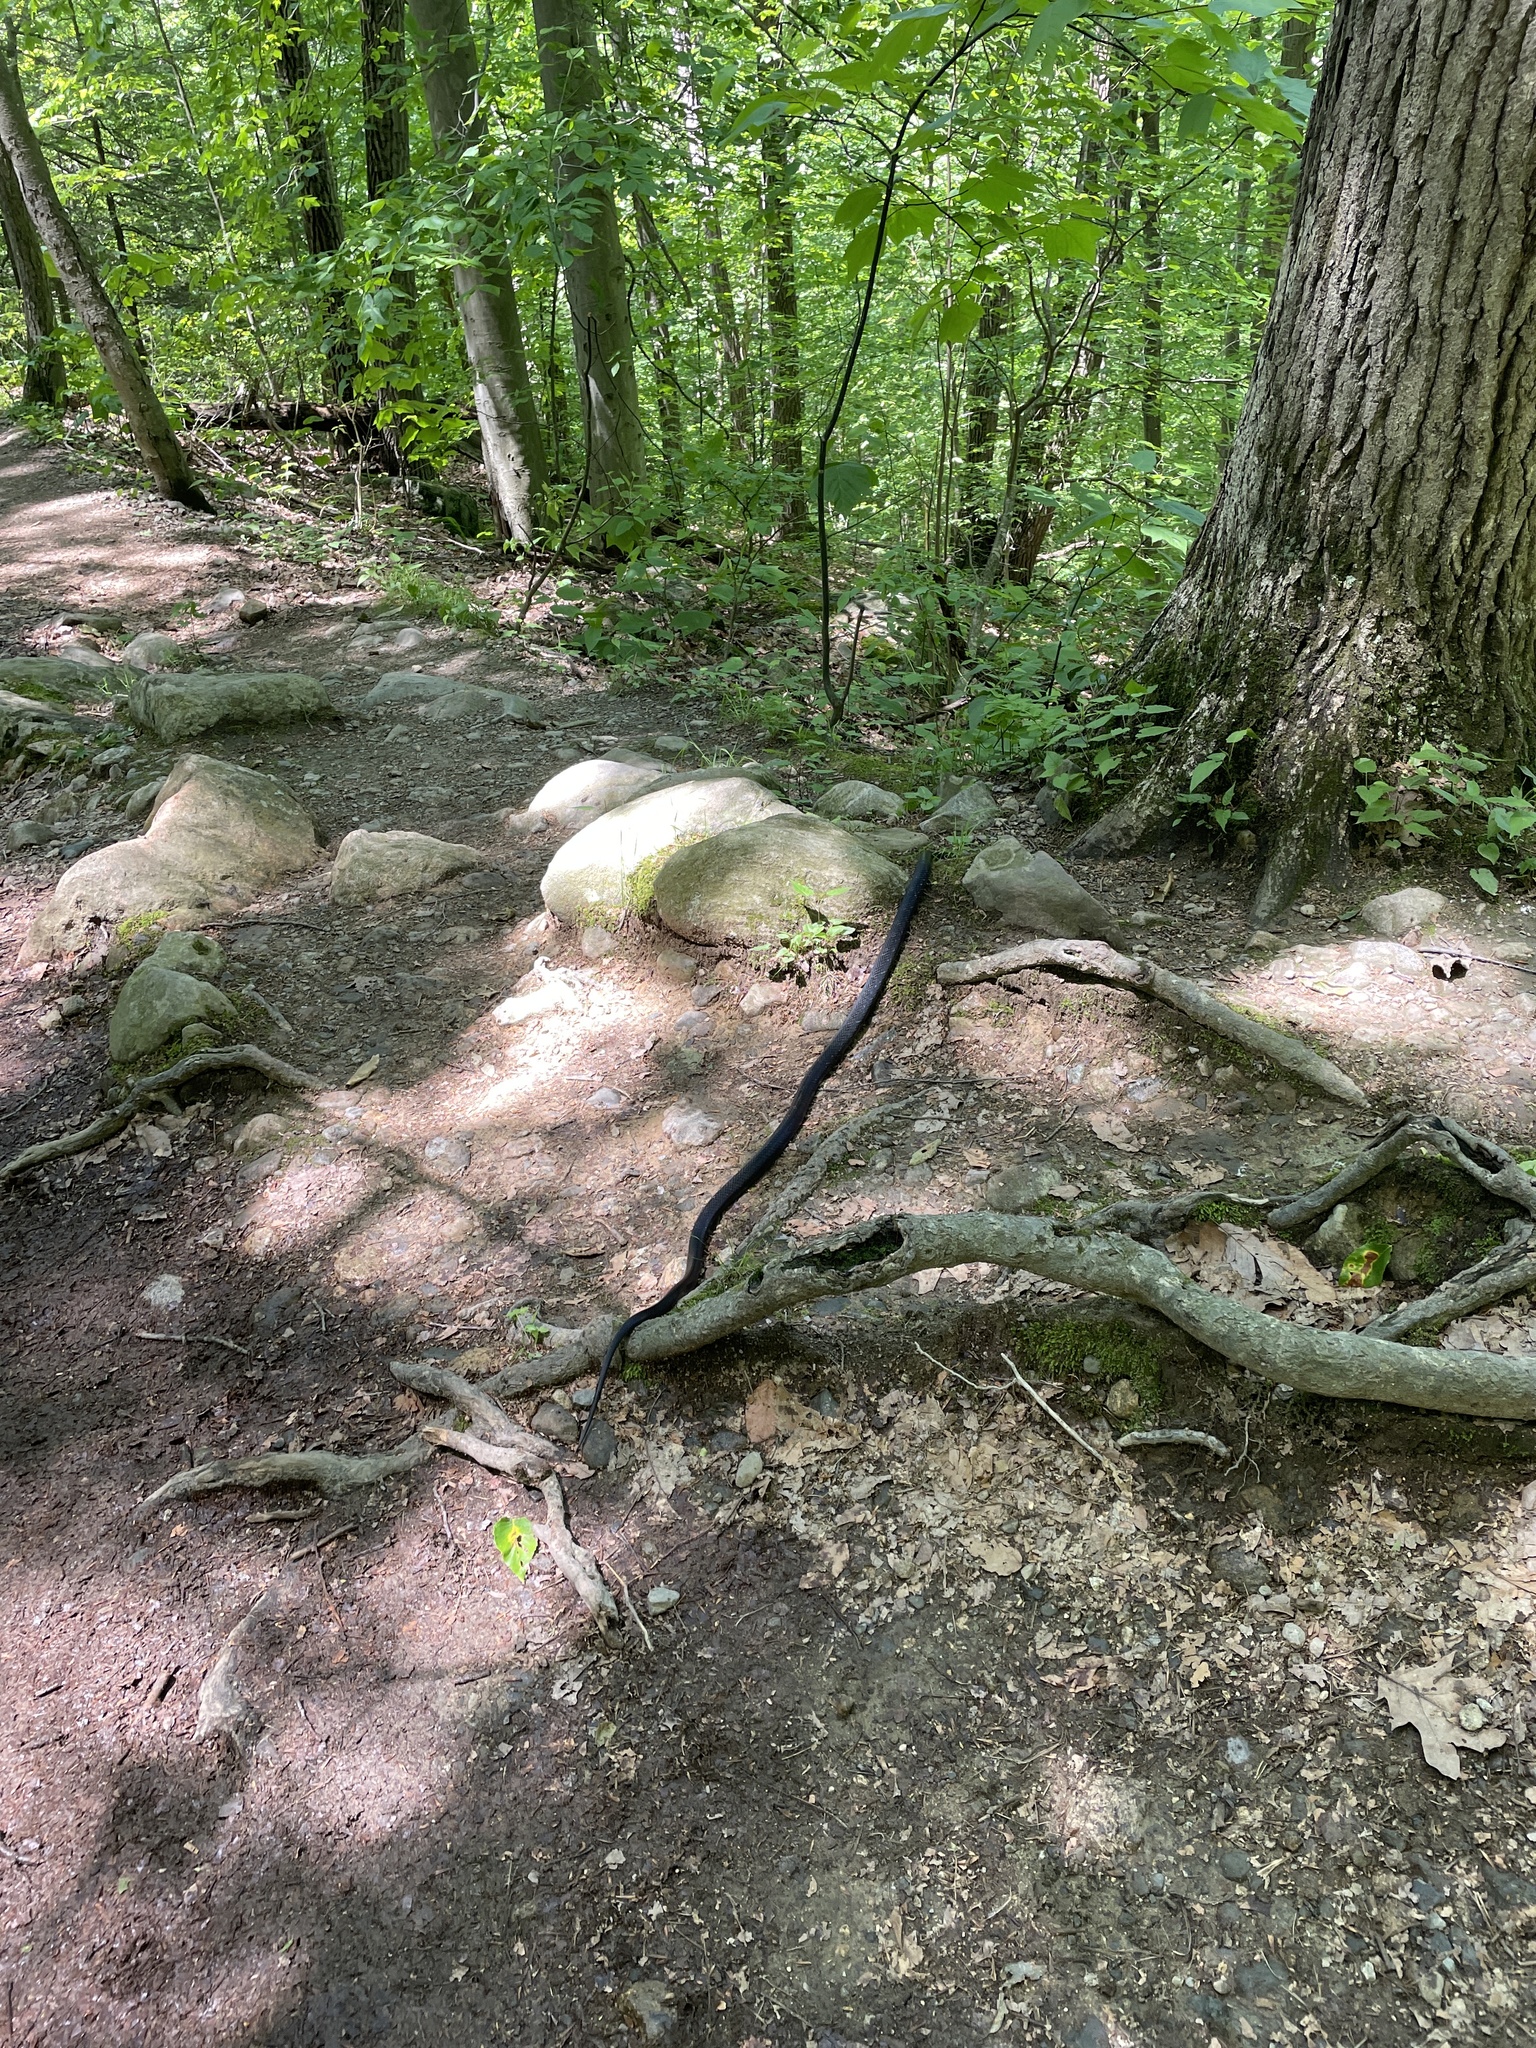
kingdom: Animalia
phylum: Chordata
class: Squamata
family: Colubridae
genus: Pantherophis
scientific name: Pantherophis alleghaniensis
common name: Eastern rat snake
